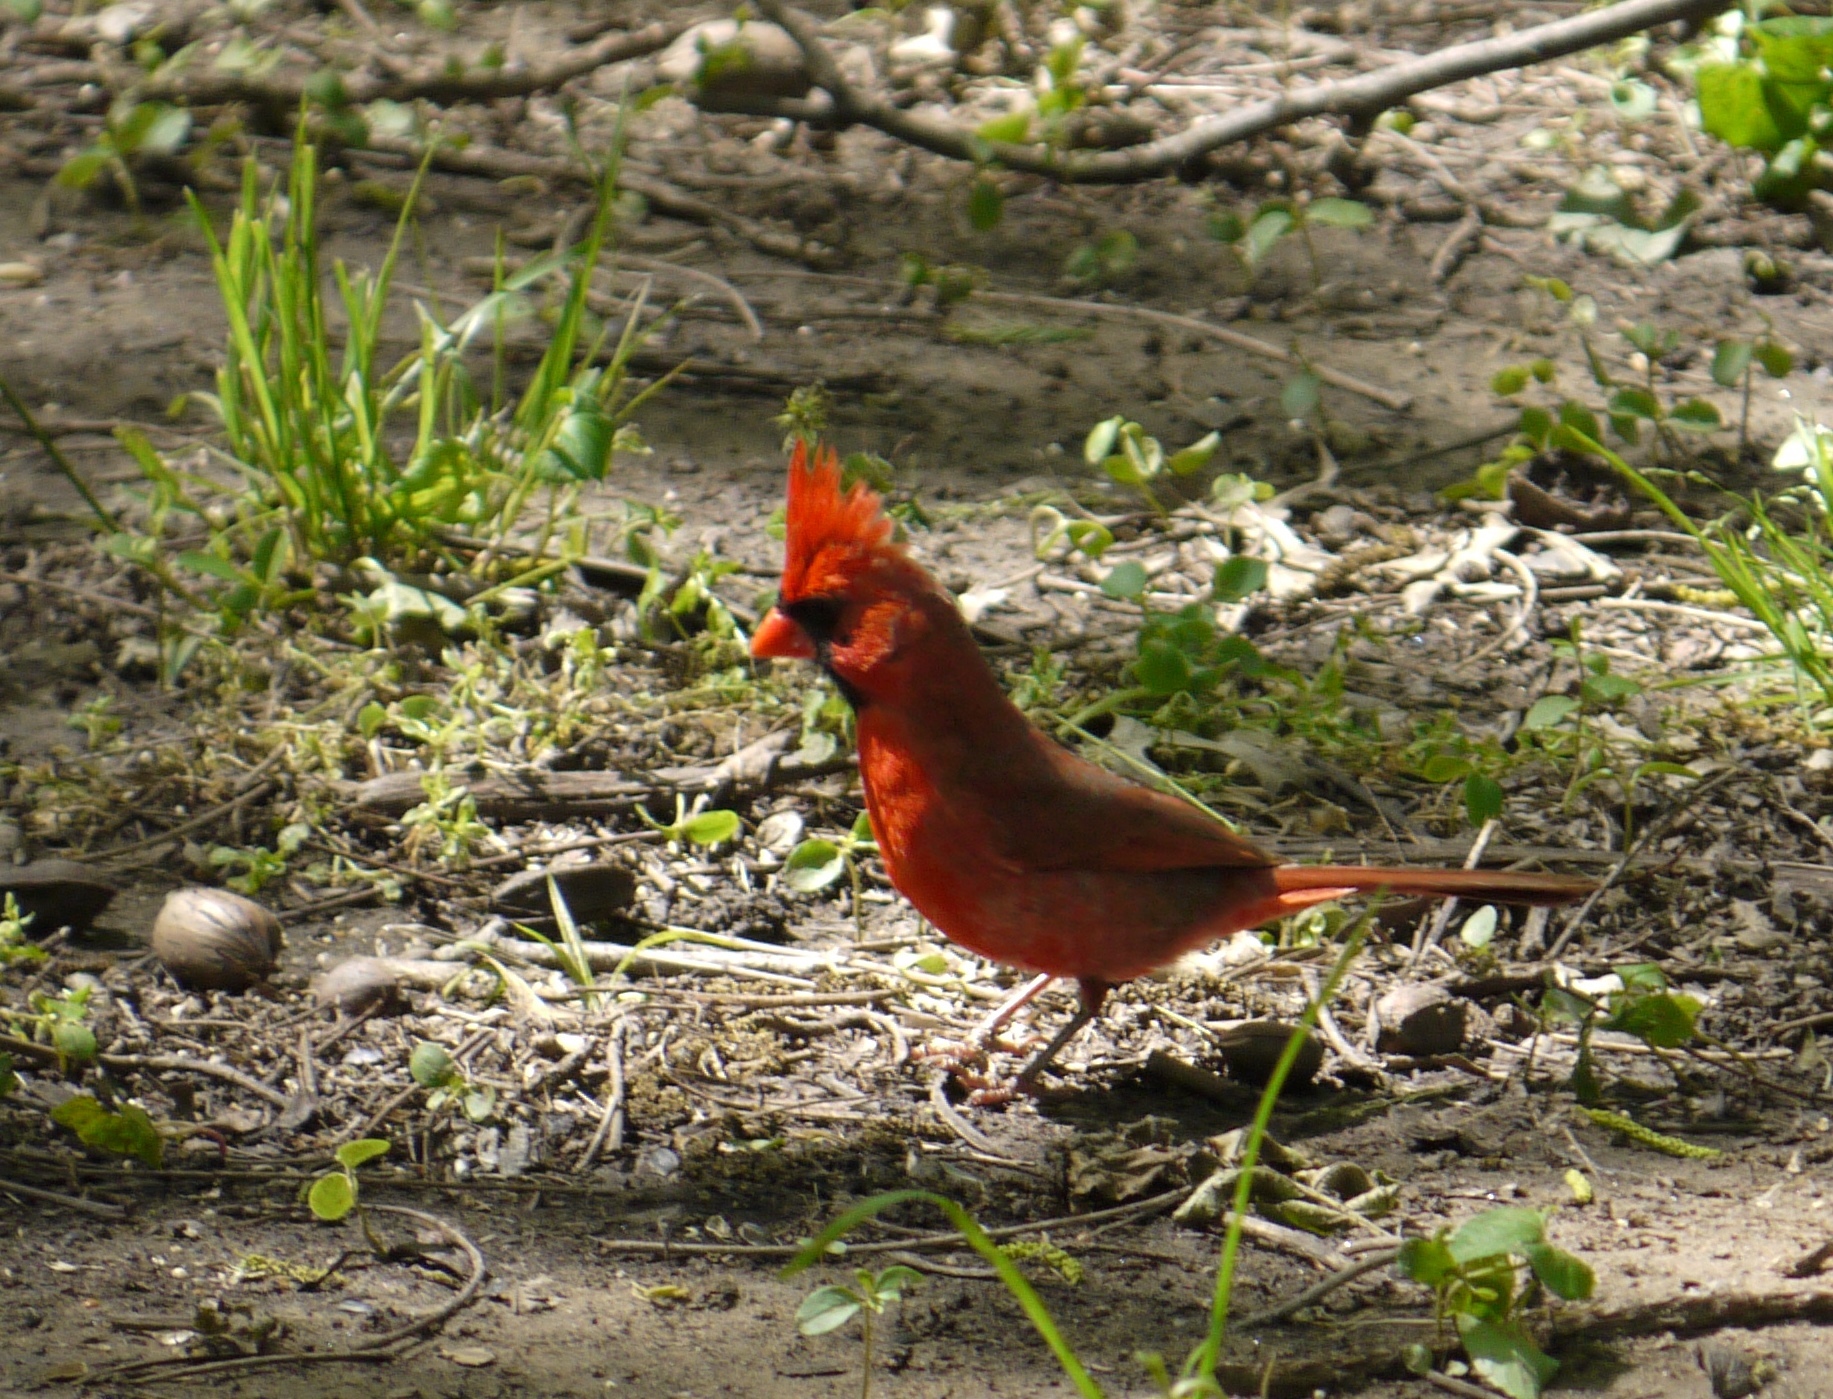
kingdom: Animalia
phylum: Chordata
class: Aves
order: Passeriformes
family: Cardinalidae
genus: Cardinalis
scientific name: Cardinalis cardinalis
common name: Northern cardinal
